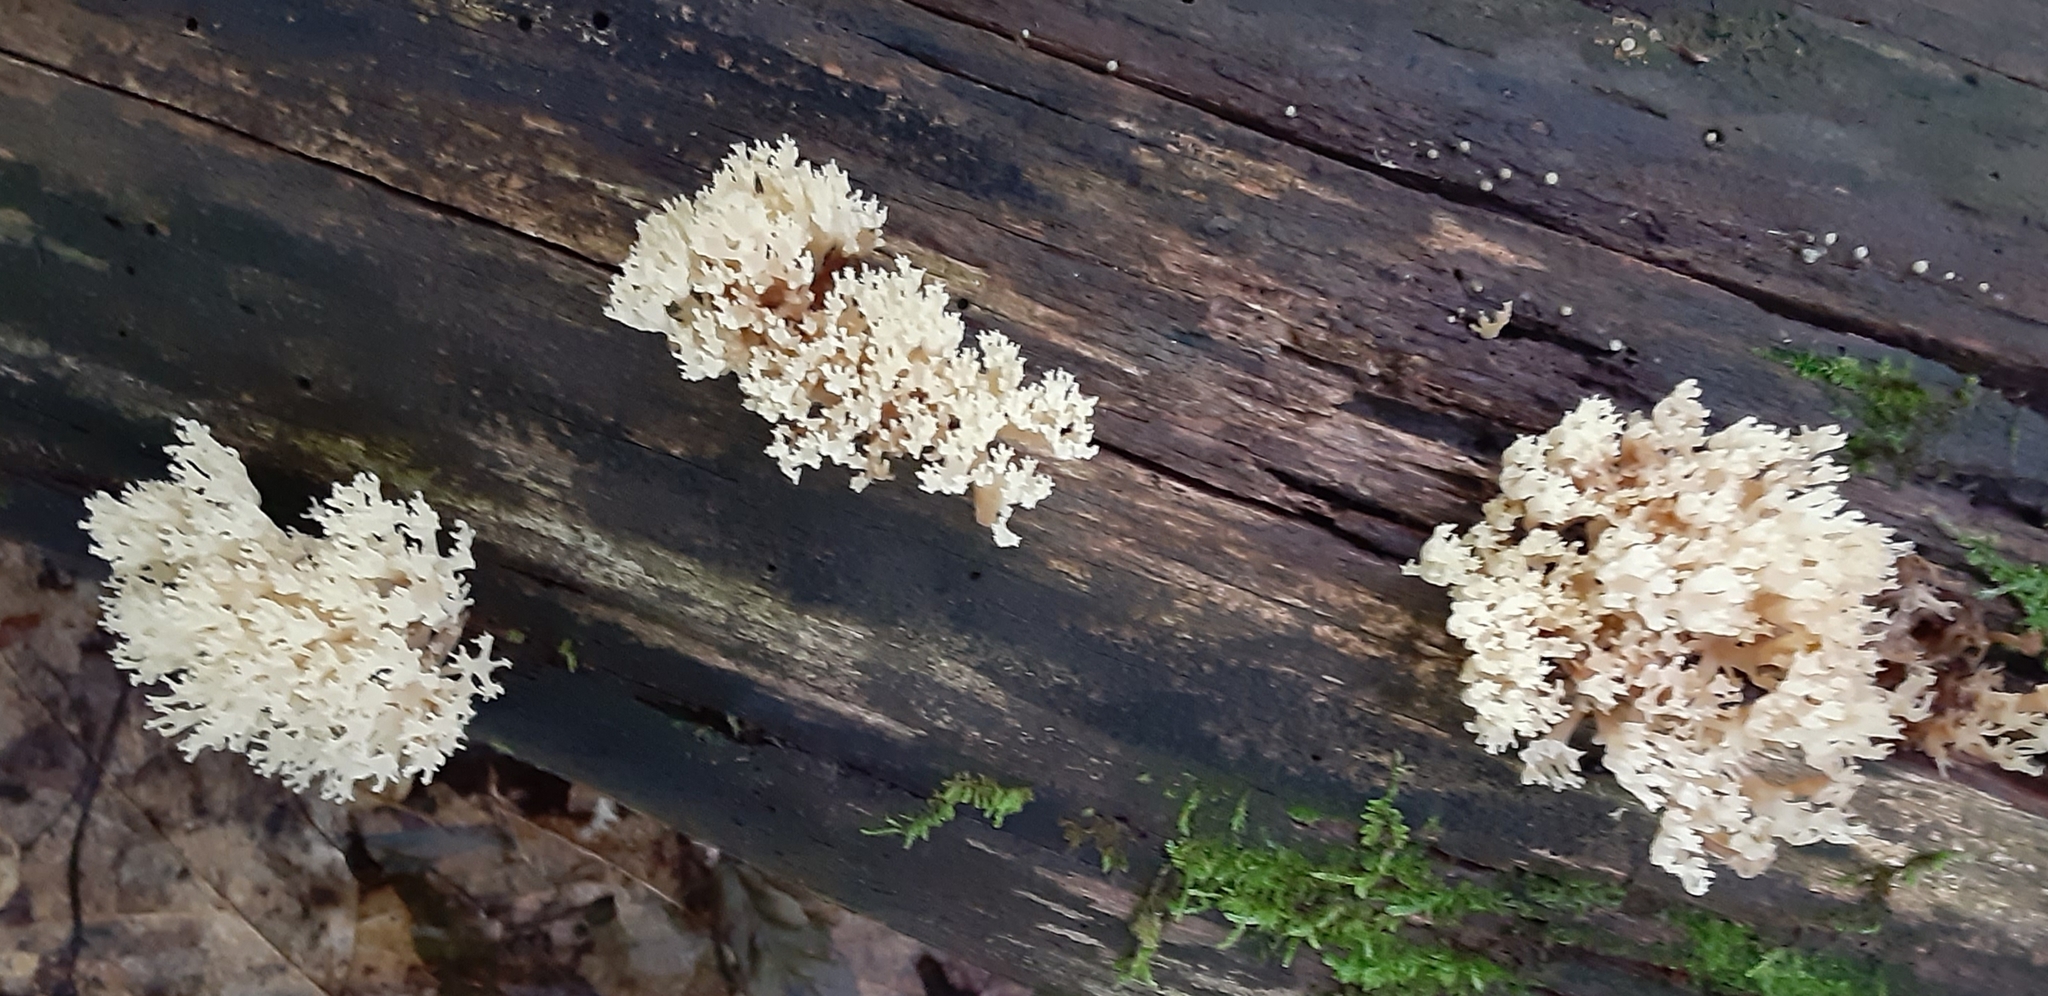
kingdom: Fungi
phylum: Basidiomycota
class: Agaricomycetes
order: Russulales
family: Auriscalpiaceae
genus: Artomyces
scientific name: Artomyces pyxidatus
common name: Crown-tipped coral fungus
